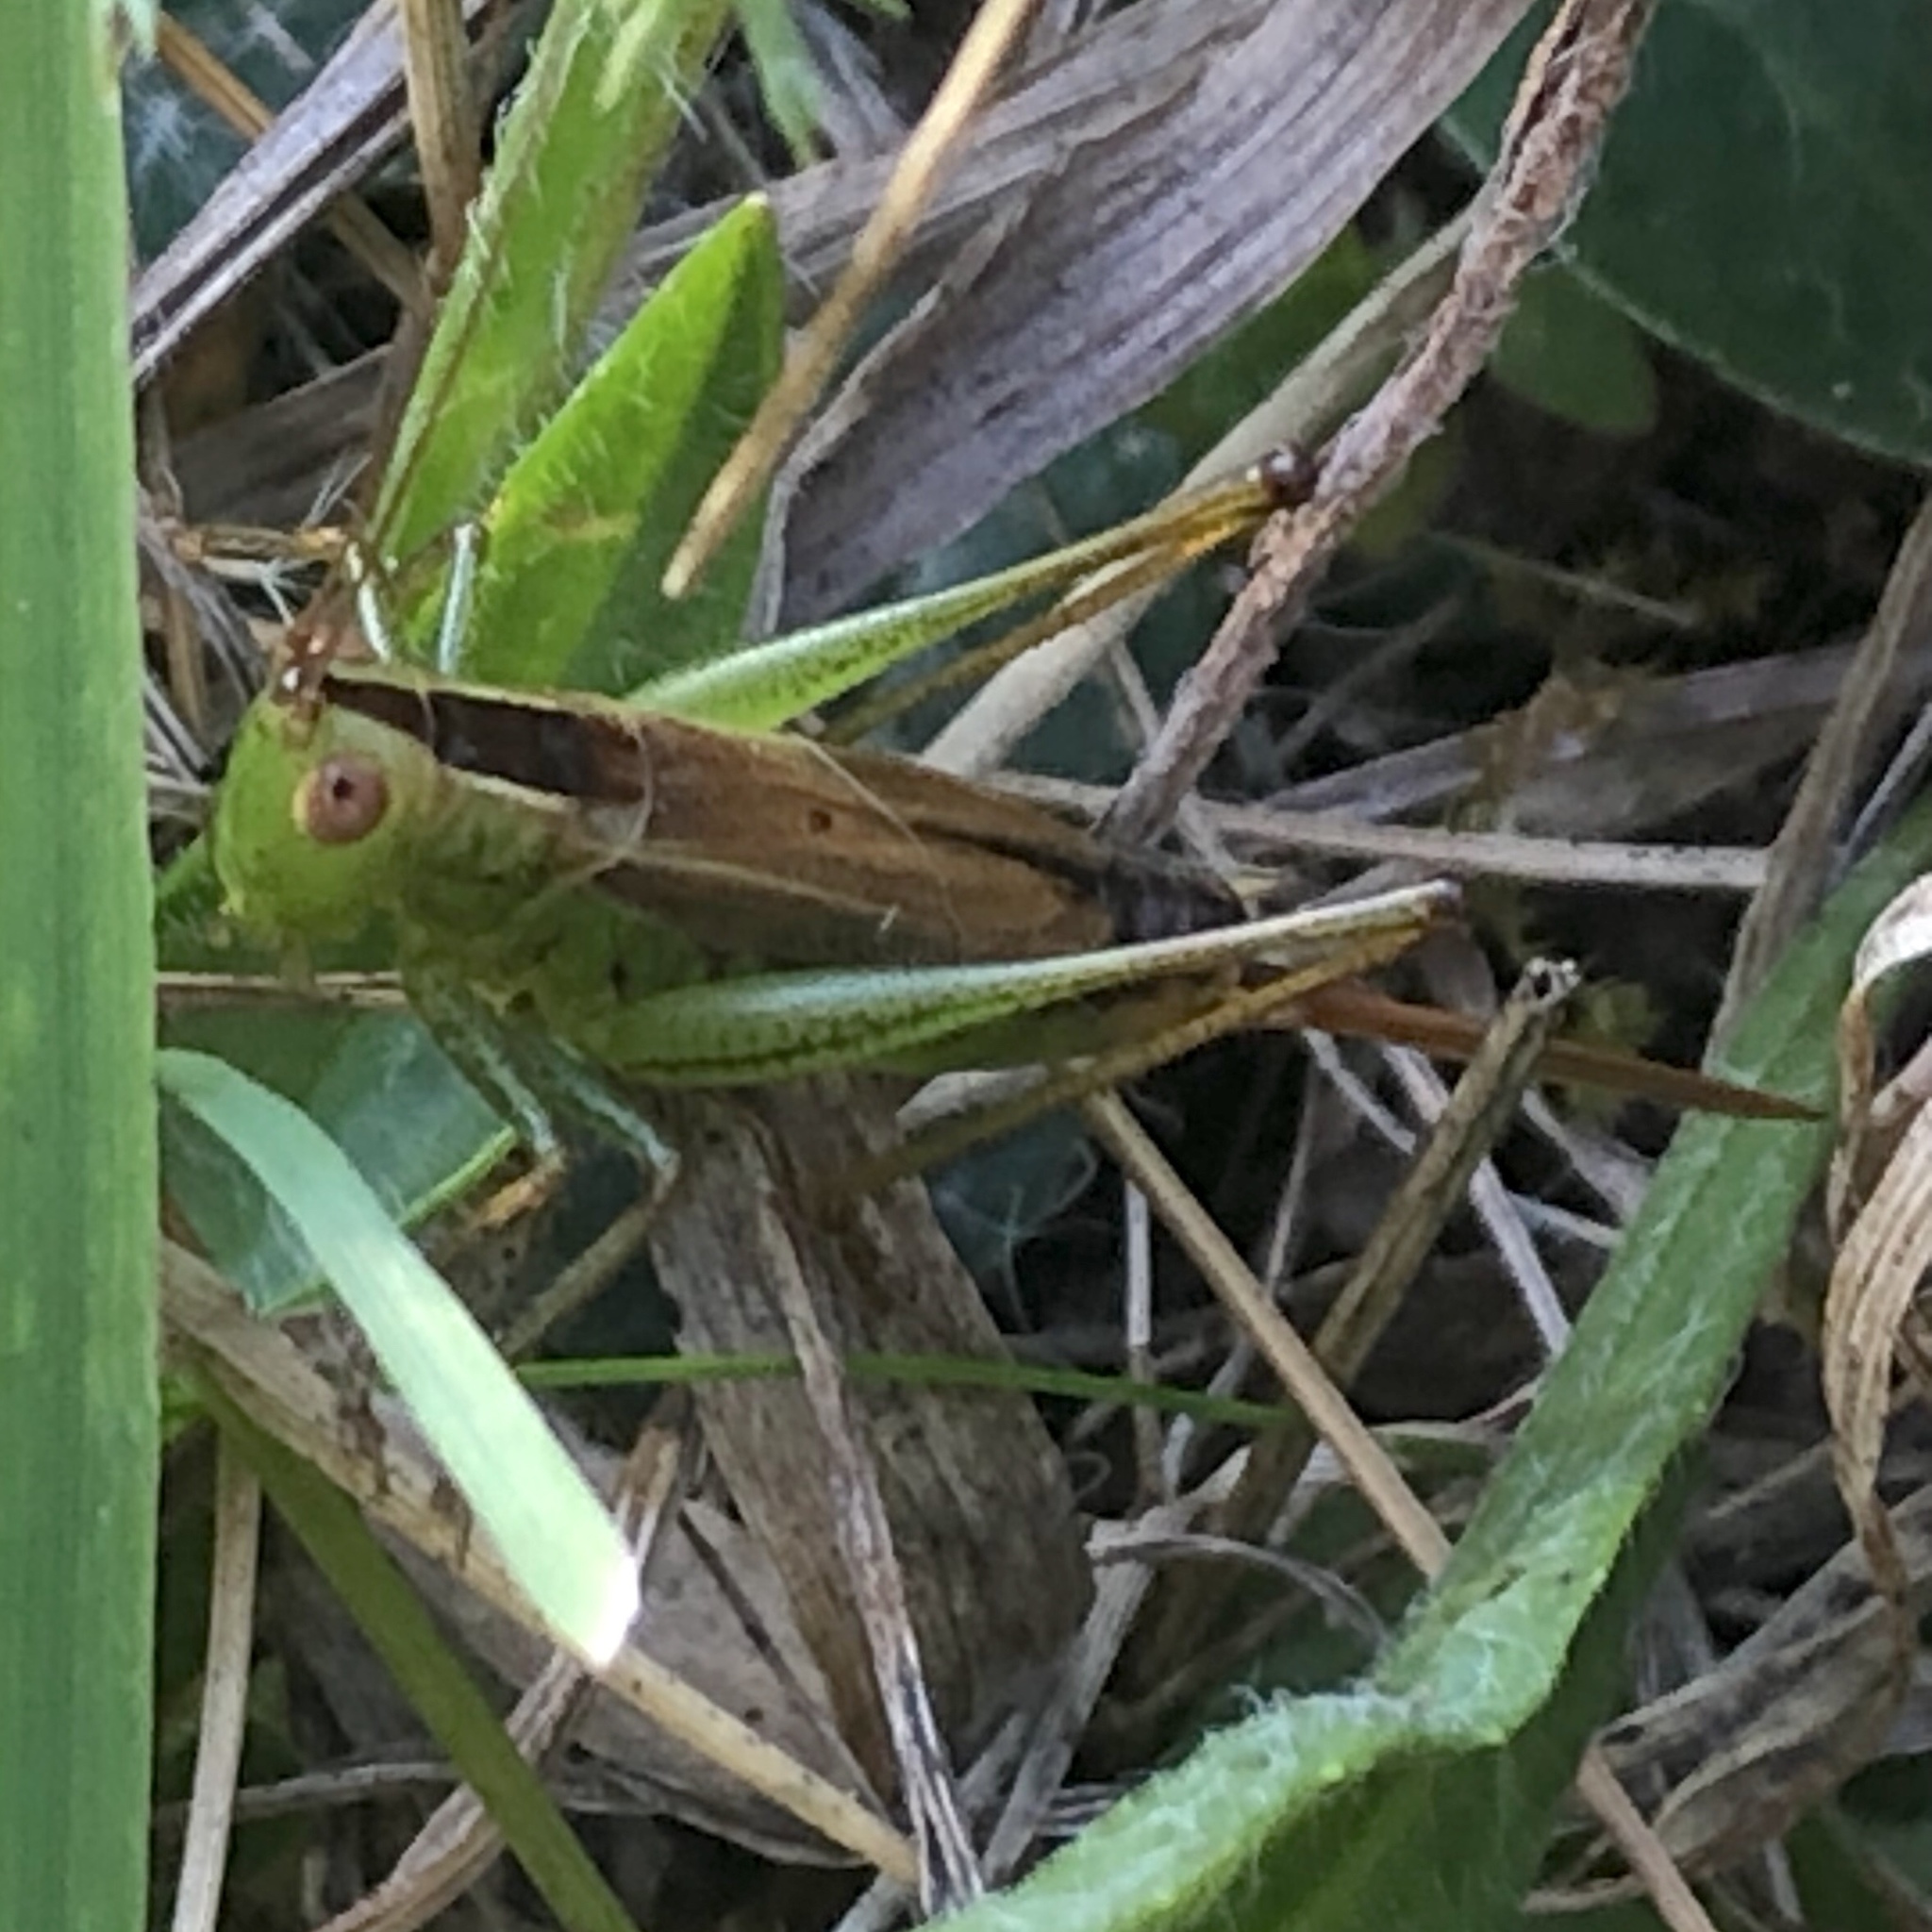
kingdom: Animalia
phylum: Arthropoda
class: Insecta
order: Orthoptera
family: Tettigoniidae
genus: Conocephalus
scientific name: Conocephalus brevipennis
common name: Short-winged meadow katydid
